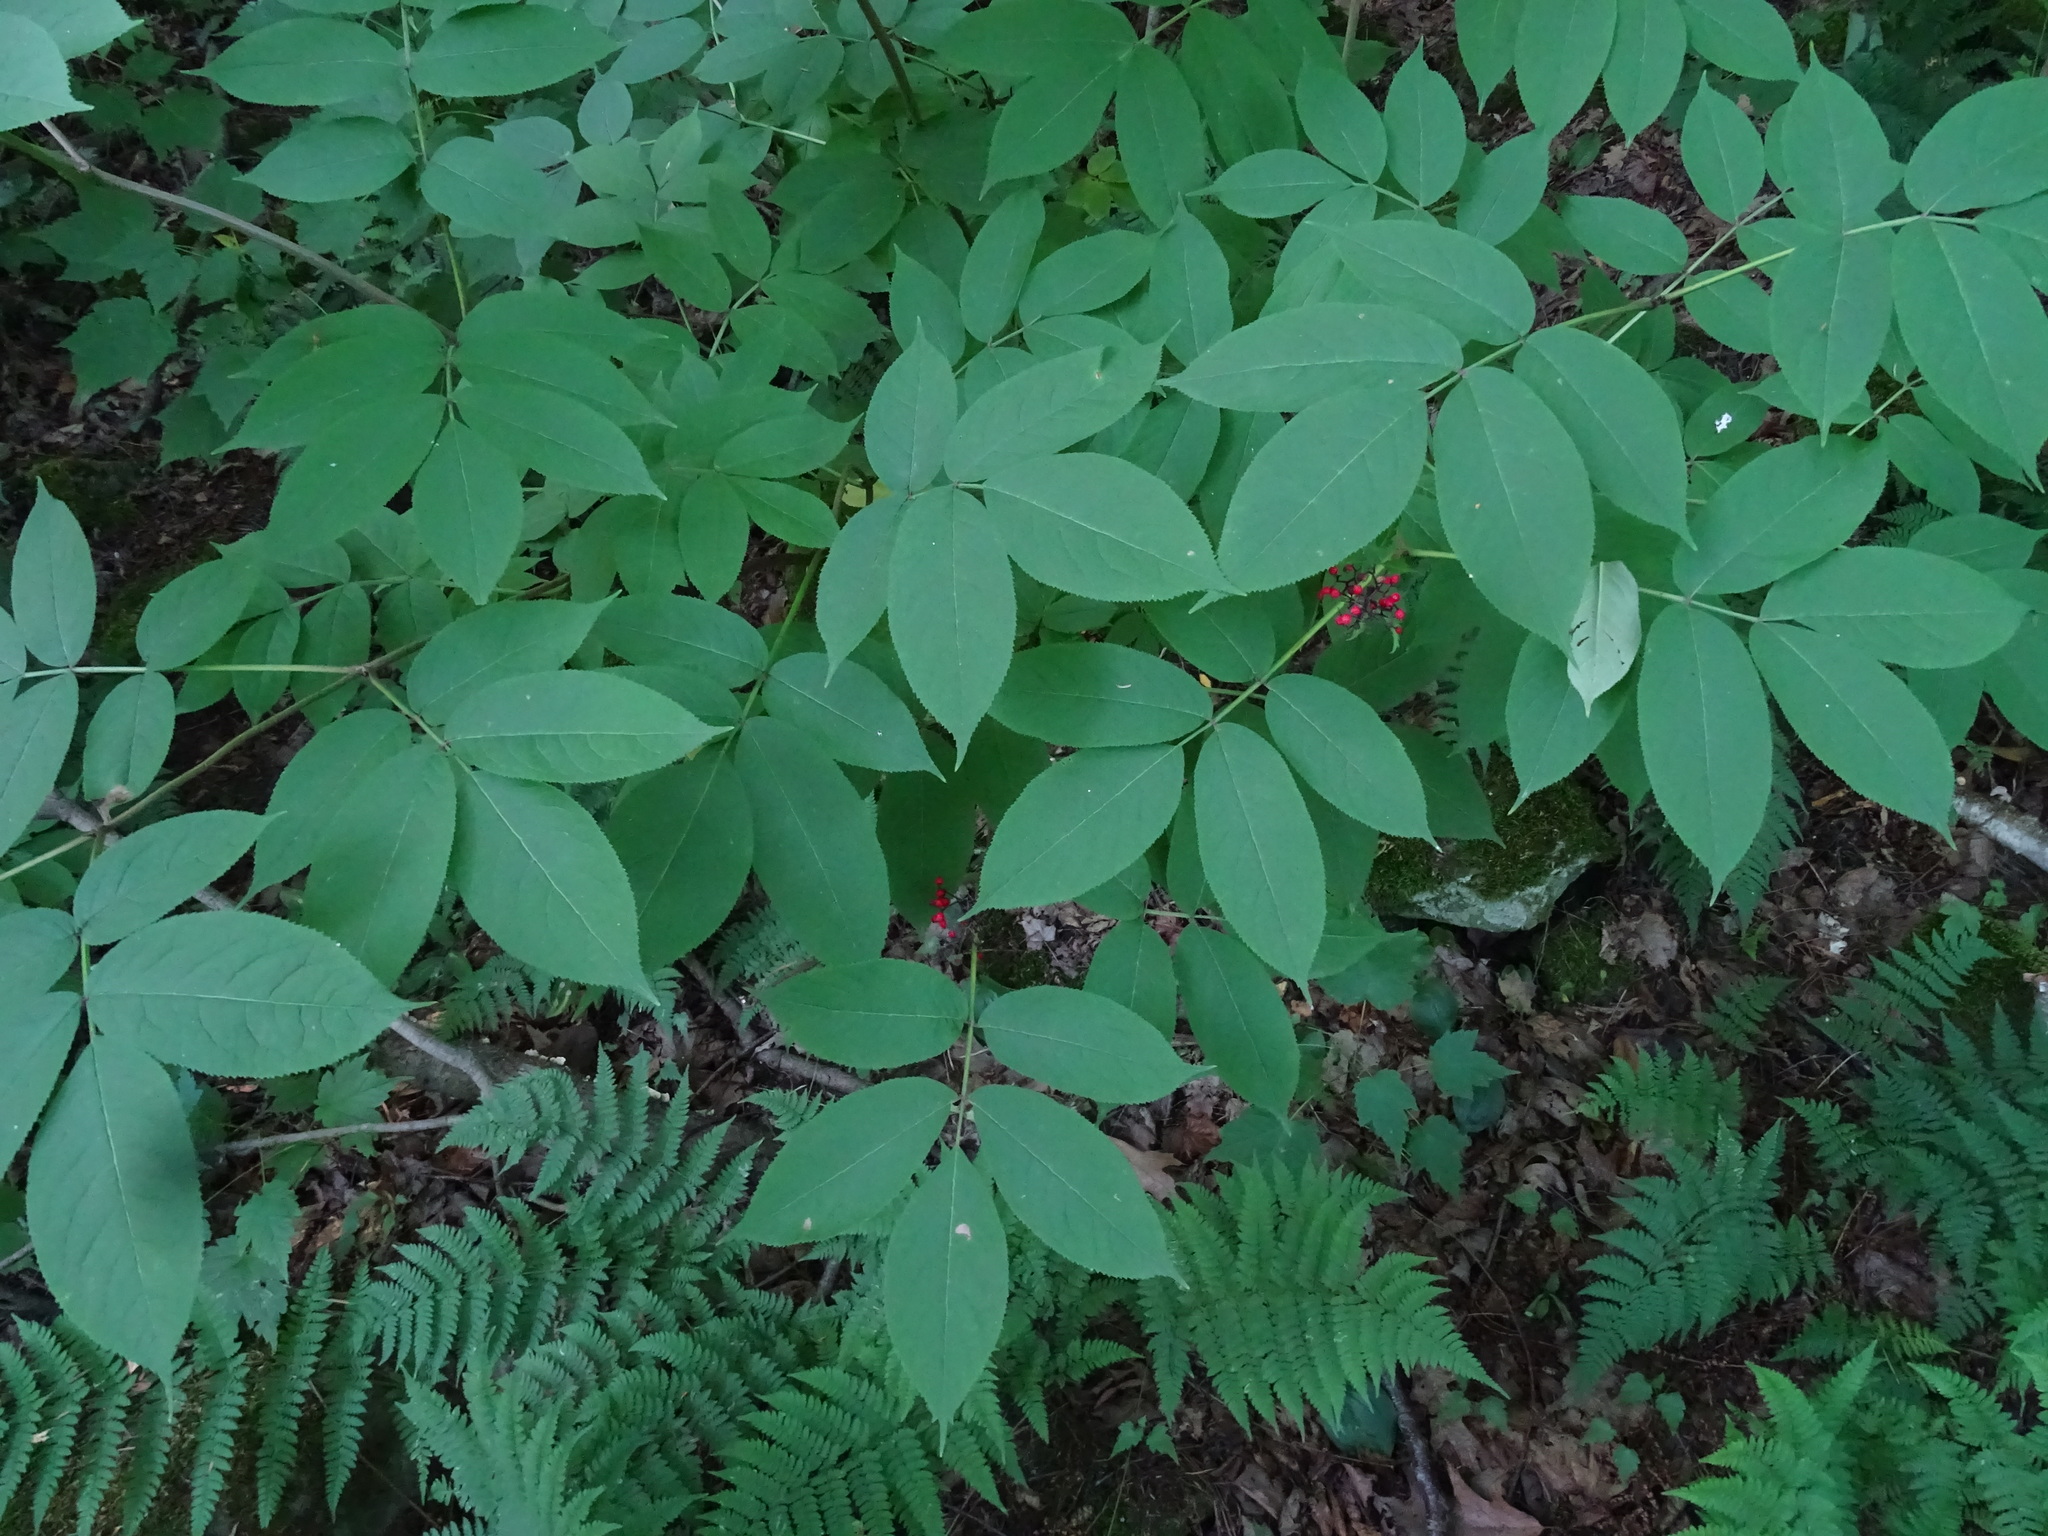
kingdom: Plantae
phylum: Tracheophyta
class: Magnoliopsida
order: Dipsacales
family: Viburnaceae
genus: Sambucus
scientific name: Sambucus racemosa
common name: Red-berried elder
